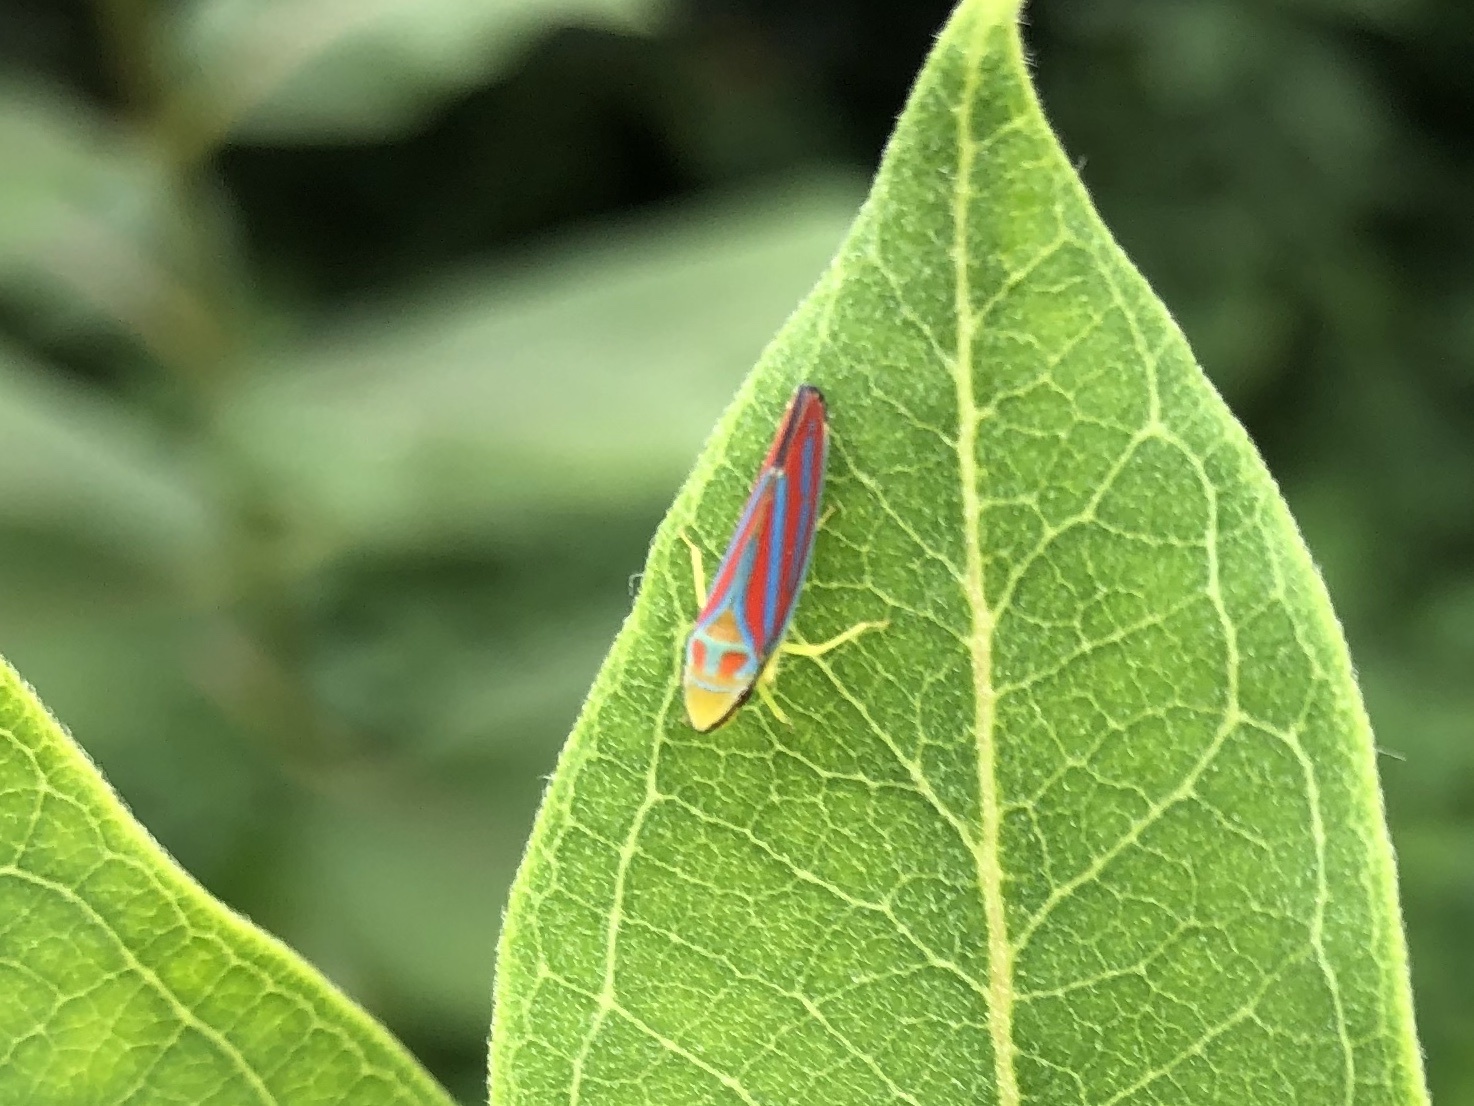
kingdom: Animalia
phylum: Arthropoda
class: Insecta
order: Hemiptera
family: Cicadellidae
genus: Graphocephala
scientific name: Graphocephala coccinea
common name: Candy-striped leafhopper
